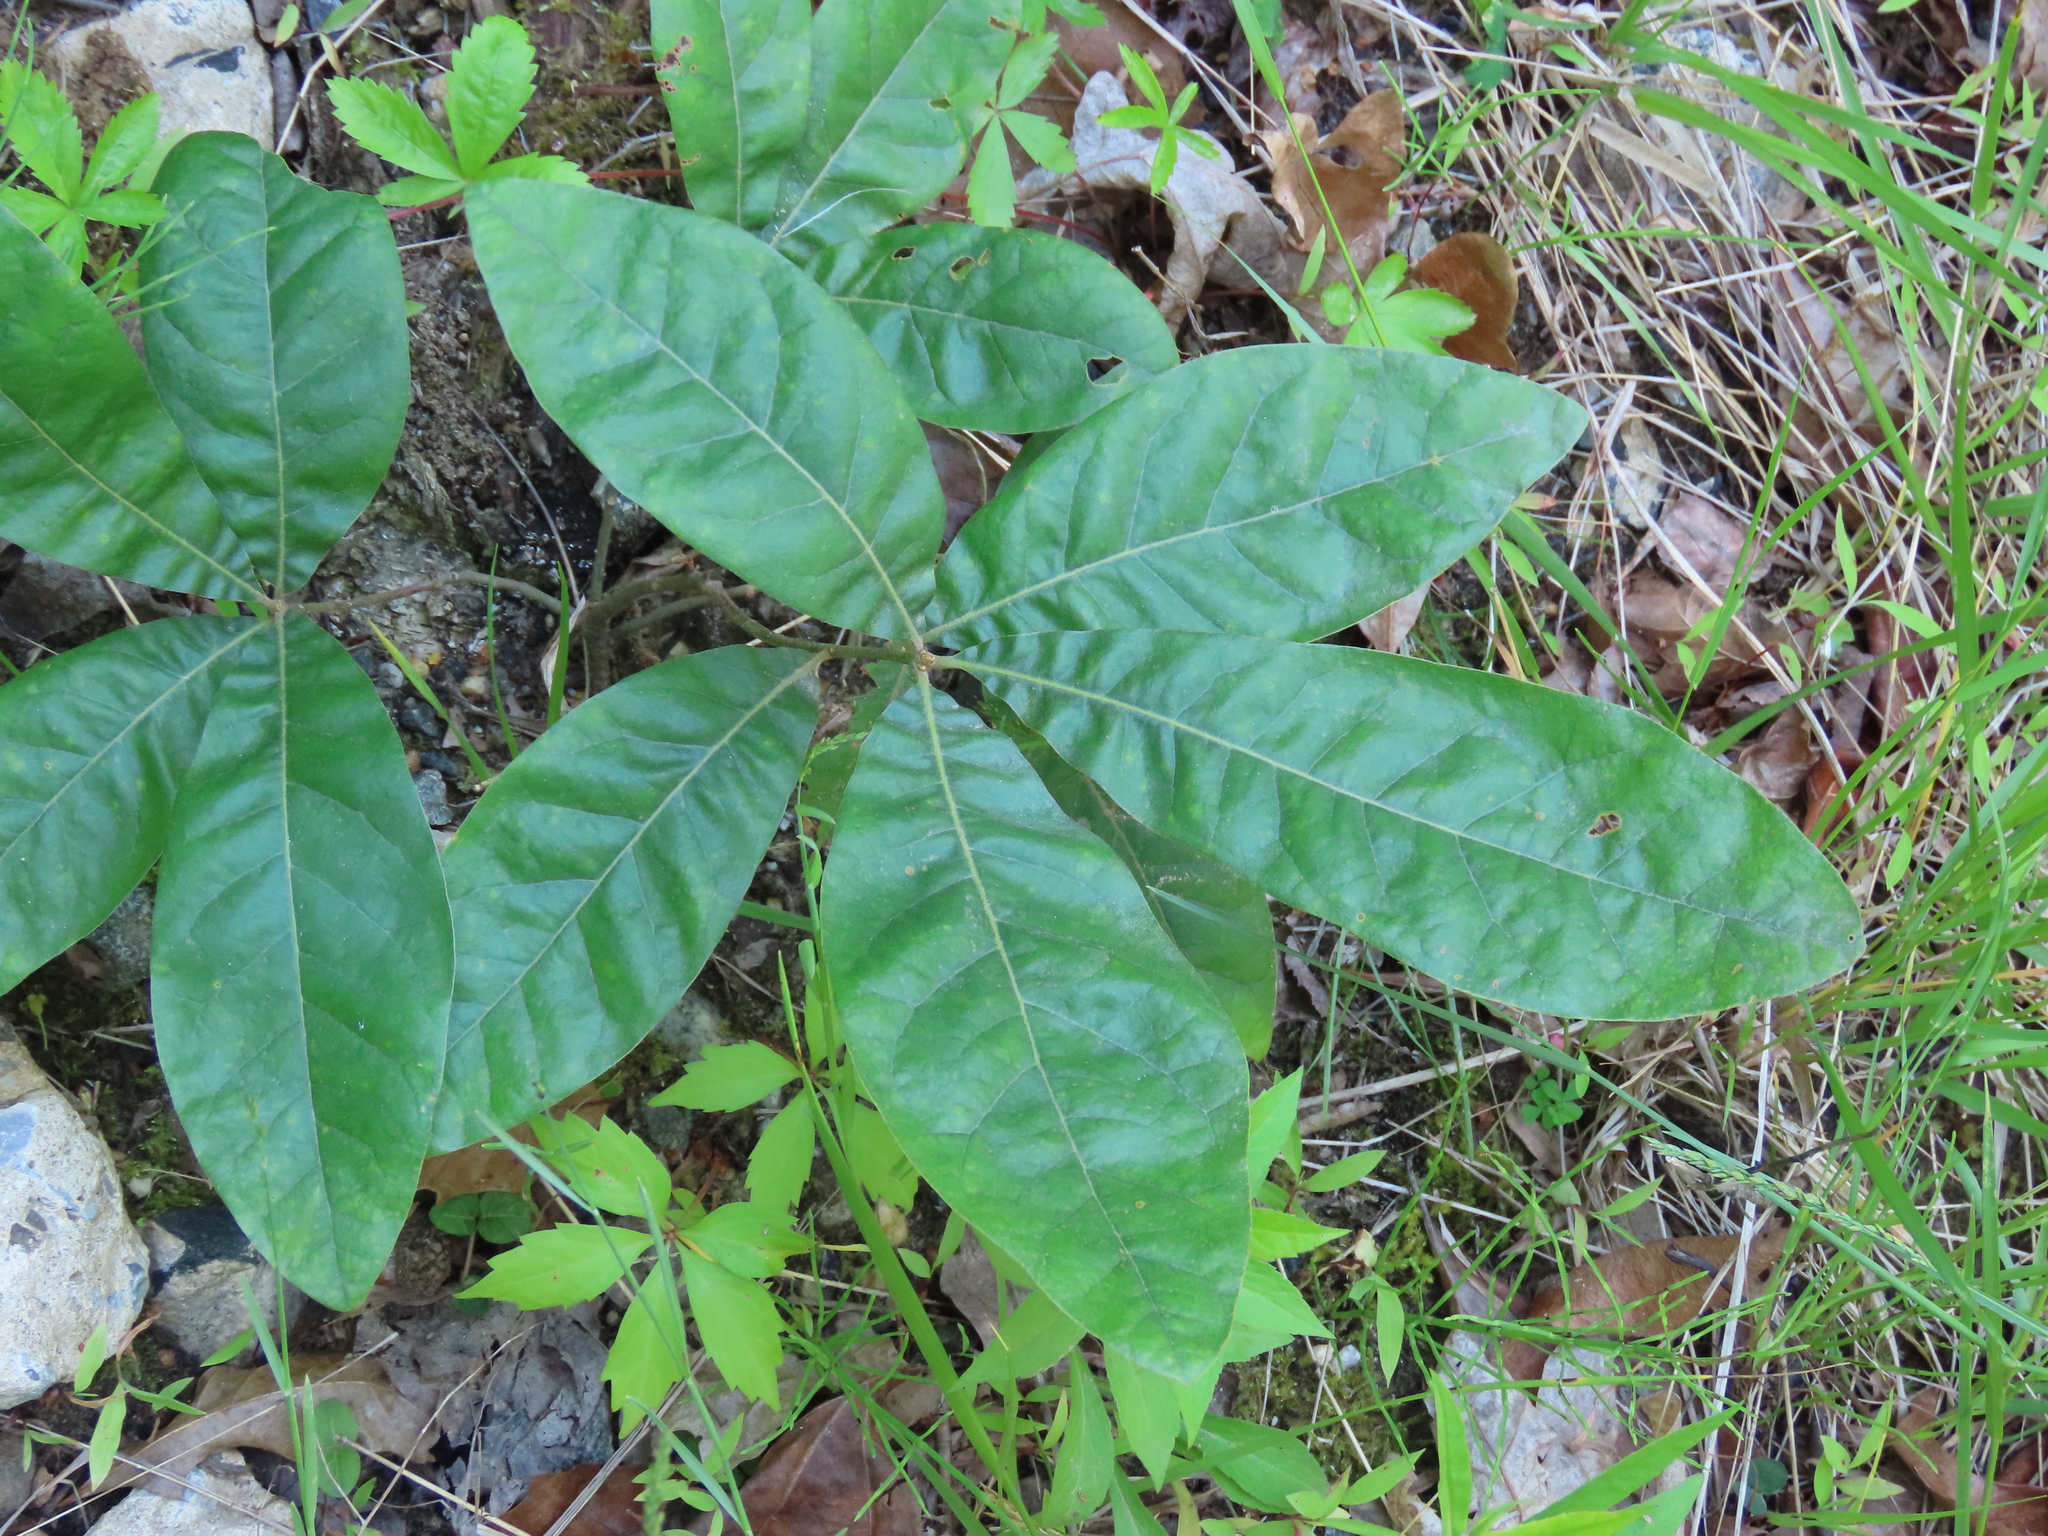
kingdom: Plantae
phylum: Tracheophyta
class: Magnoliopsida
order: Fagales
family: Fagaceae
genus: Quercus
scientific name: Quercus imbricaria
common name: Shingle oak
